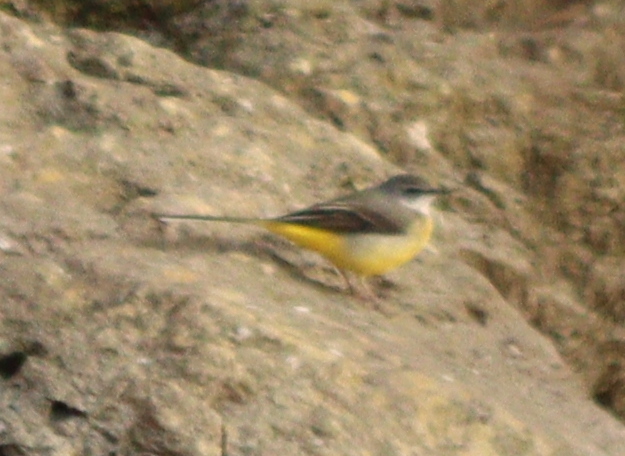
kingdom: Animalia
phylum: Chordata
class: Aves
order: Passeriformes
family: Motacillidae
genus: Motacilla
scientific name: Motacilla cinerea
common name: Grey wagtail
